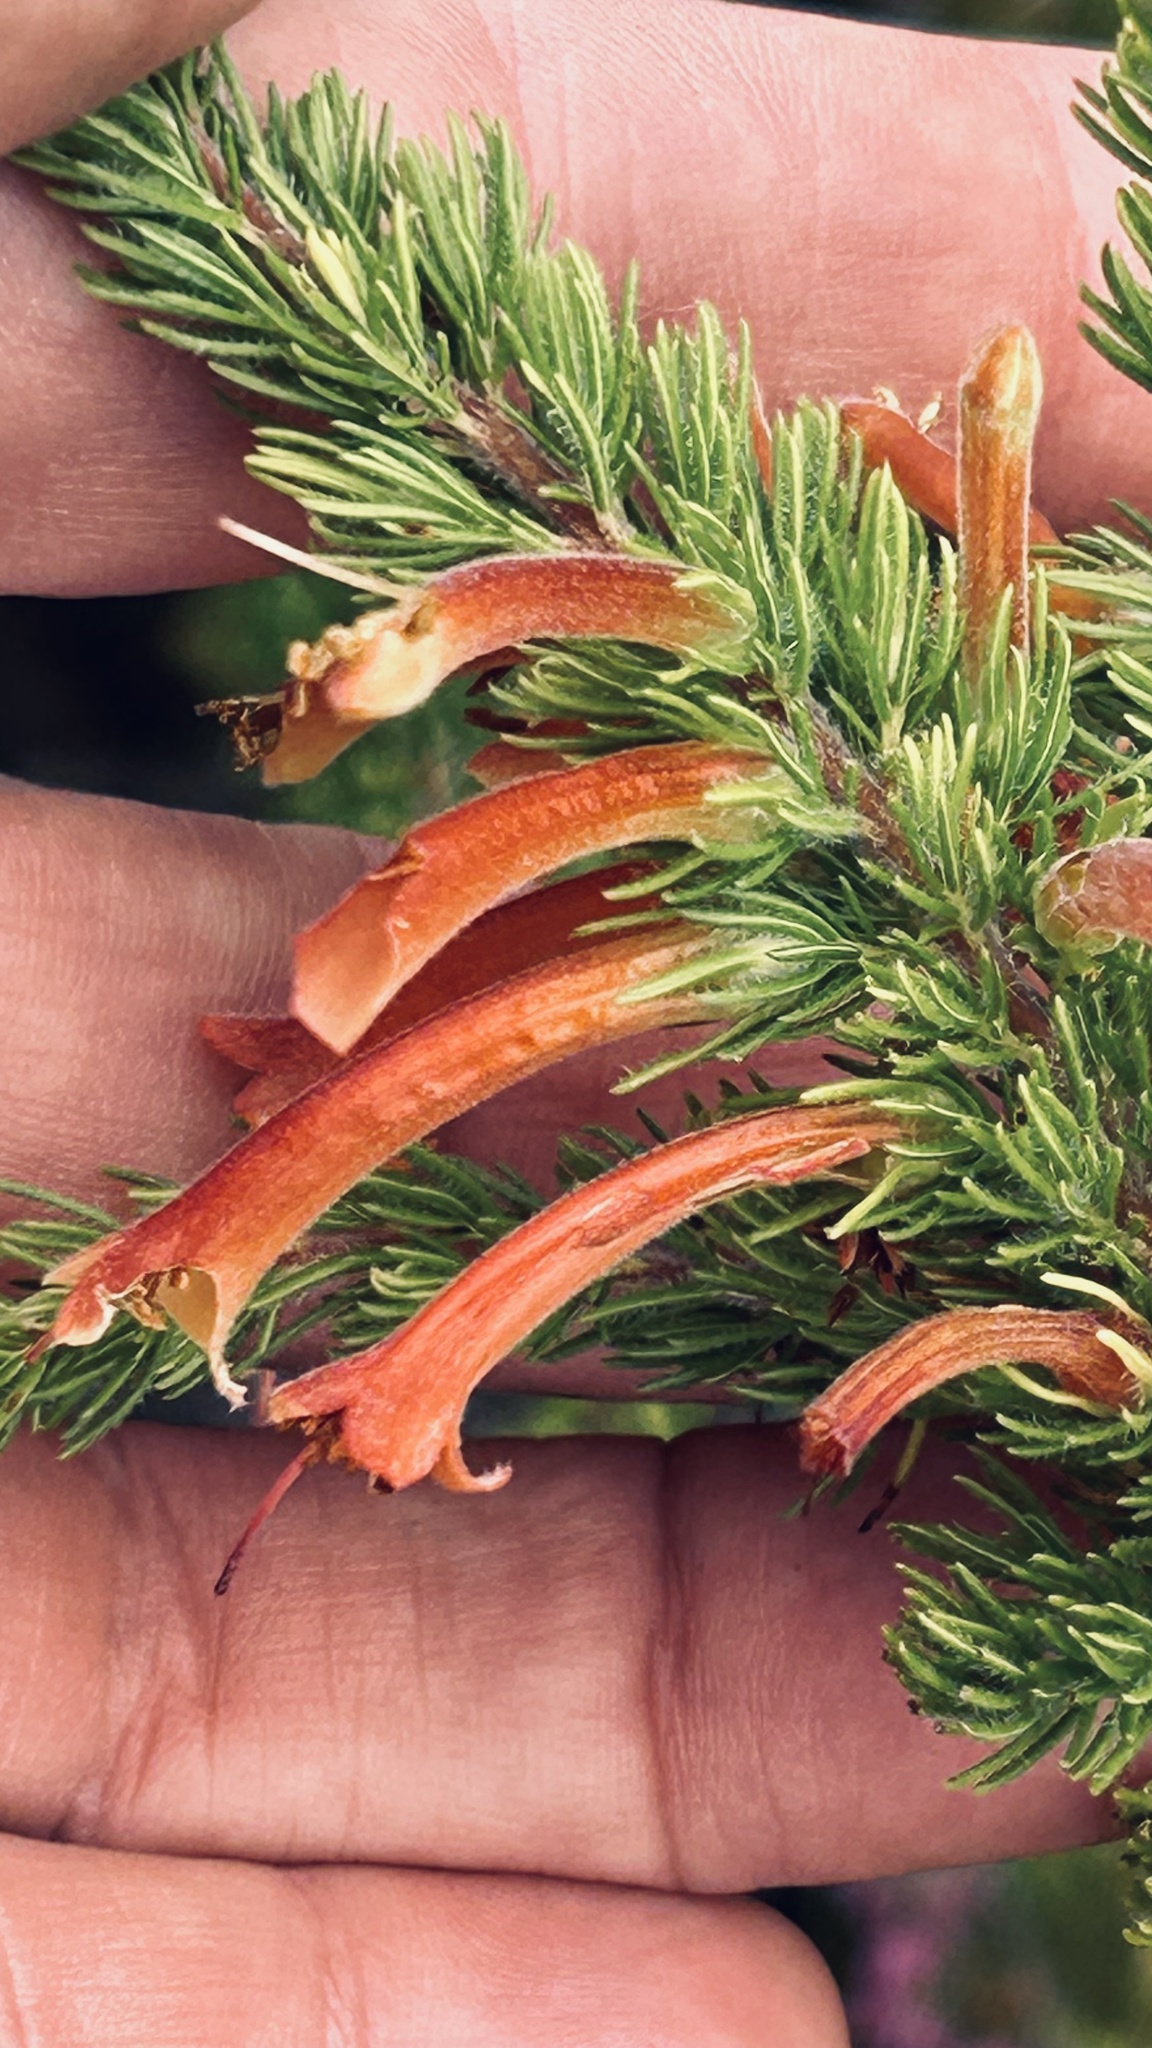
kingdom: Plantae
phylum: Tracheophyta
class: Magnoliopsida
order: Ericales
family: Ericaceae
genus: Erica
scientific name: Erica curviflora
